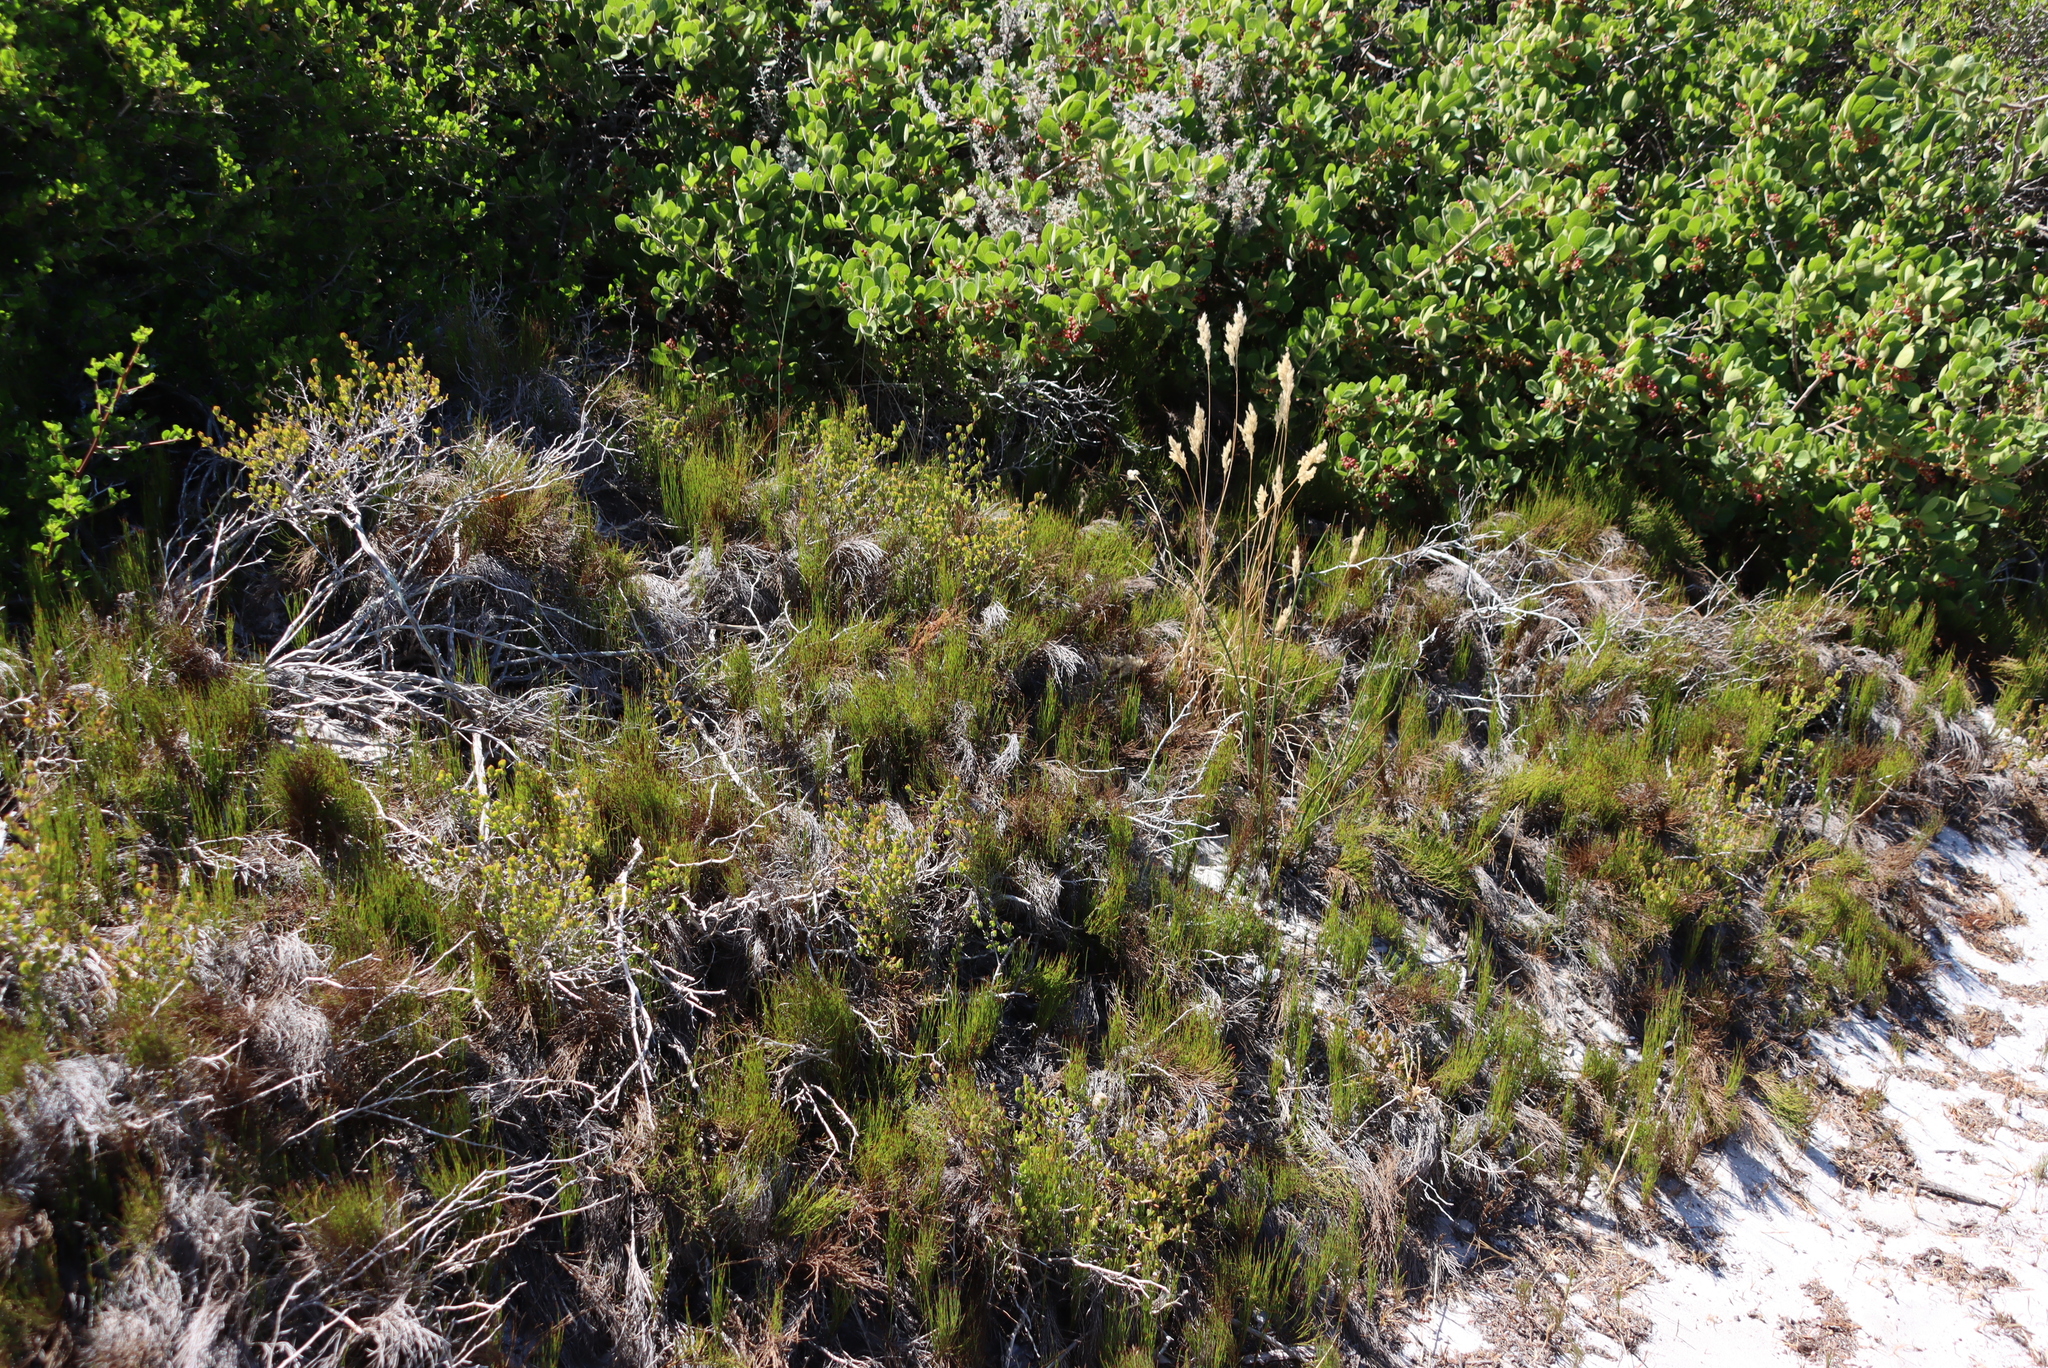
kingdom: Plantae
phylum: Tracheophyta
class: Liliopsida
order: Poales
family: Restionaceae
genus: Restio
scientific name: Restio eleocharis
